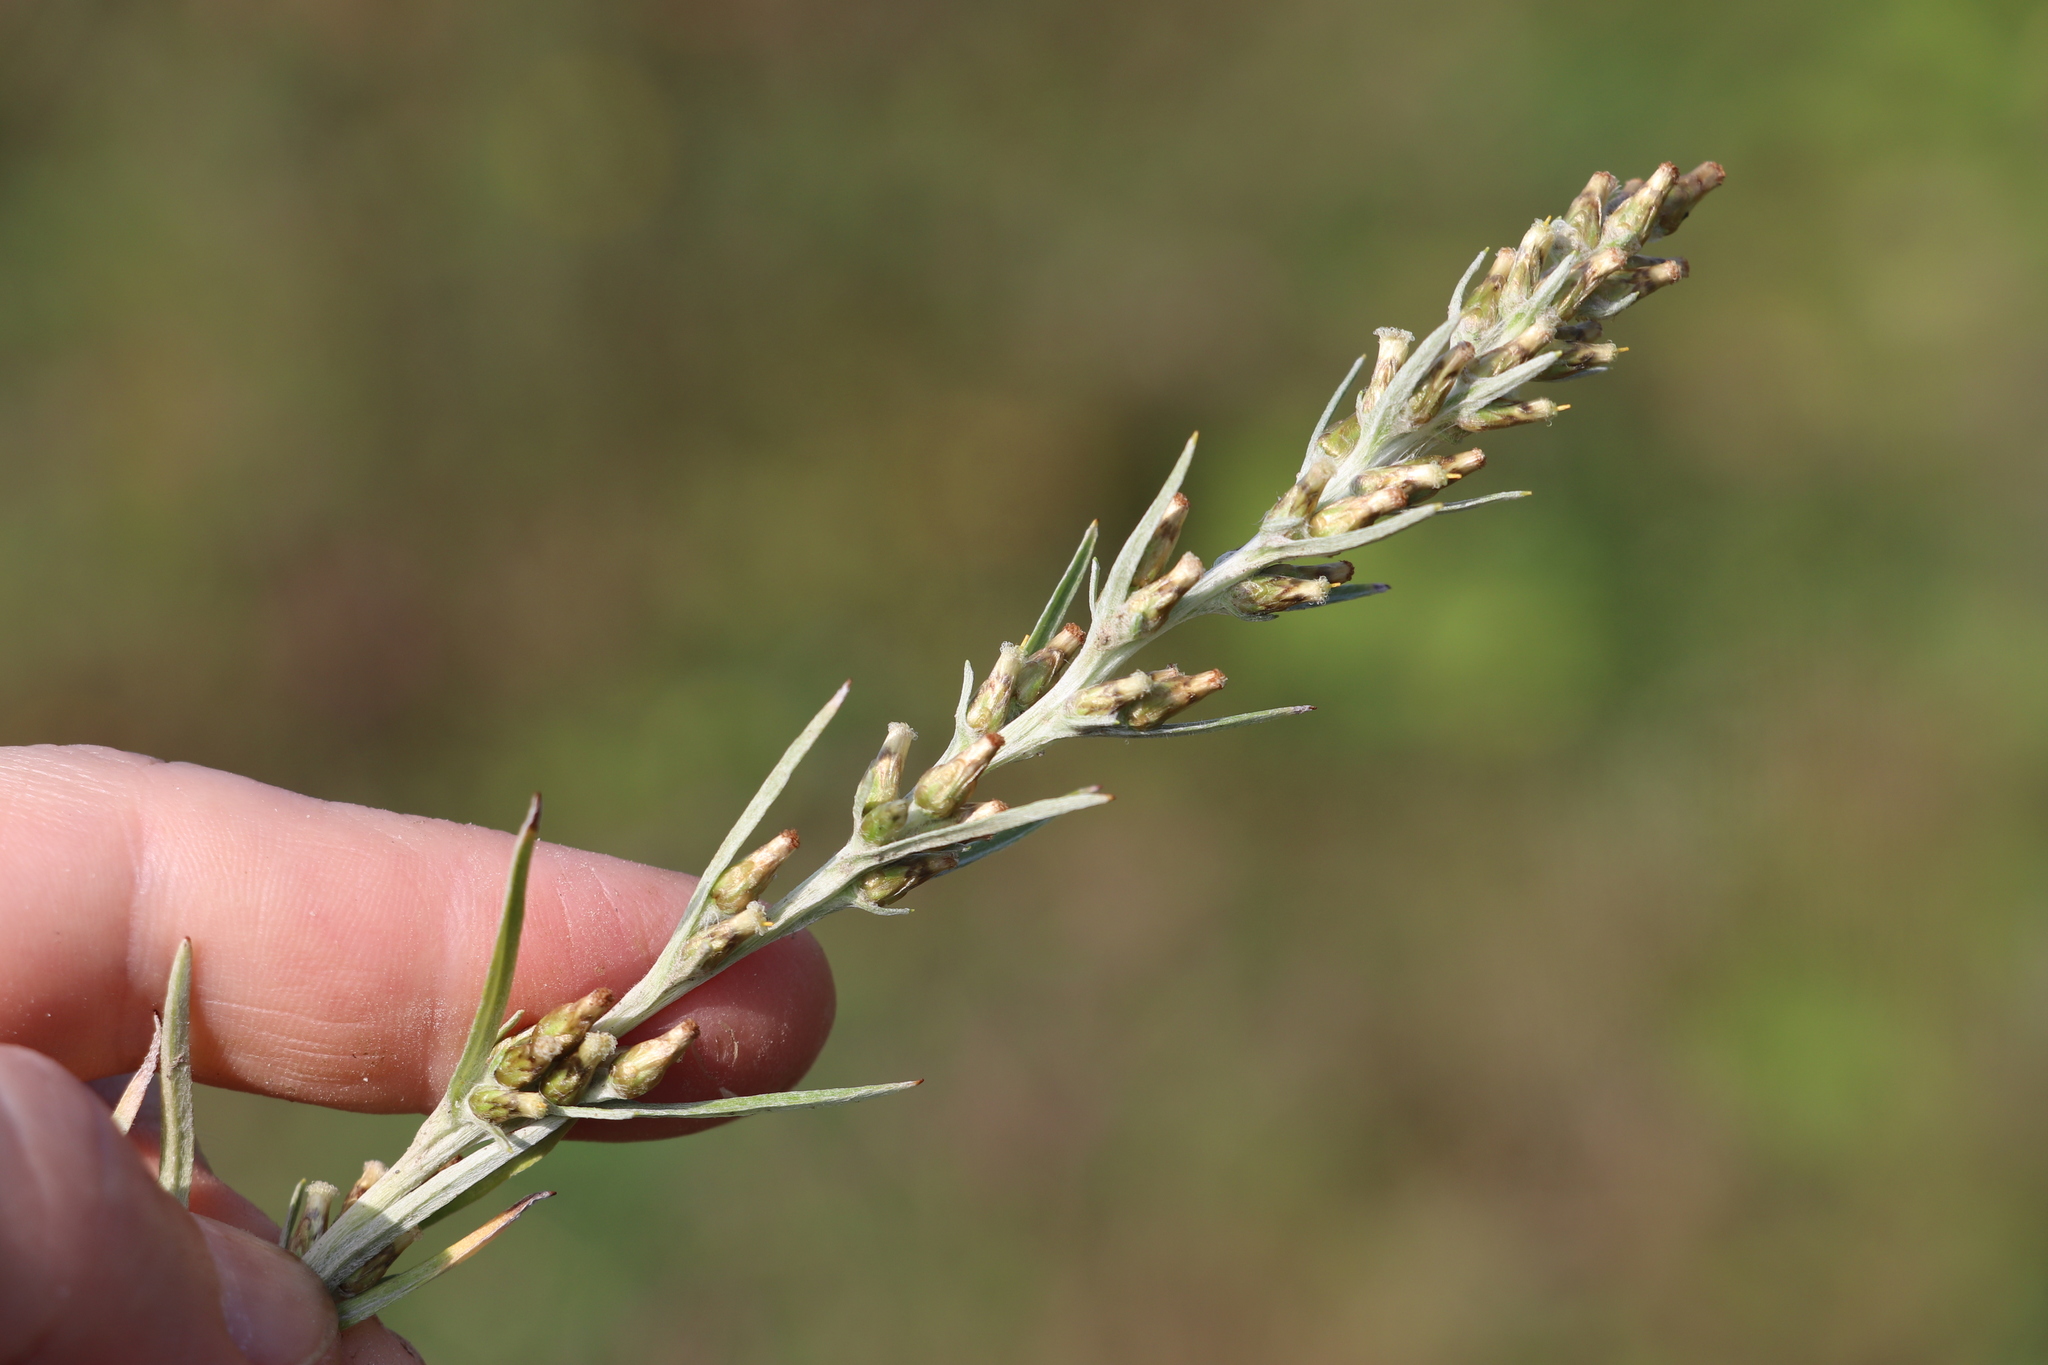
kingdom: Plantae
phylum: Tracheophyta
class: Magnoliopsida
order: Asterales
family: Asteraceae
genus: Omalotheca
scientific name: Omalotheca sylvatica
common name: Heath cudweed
